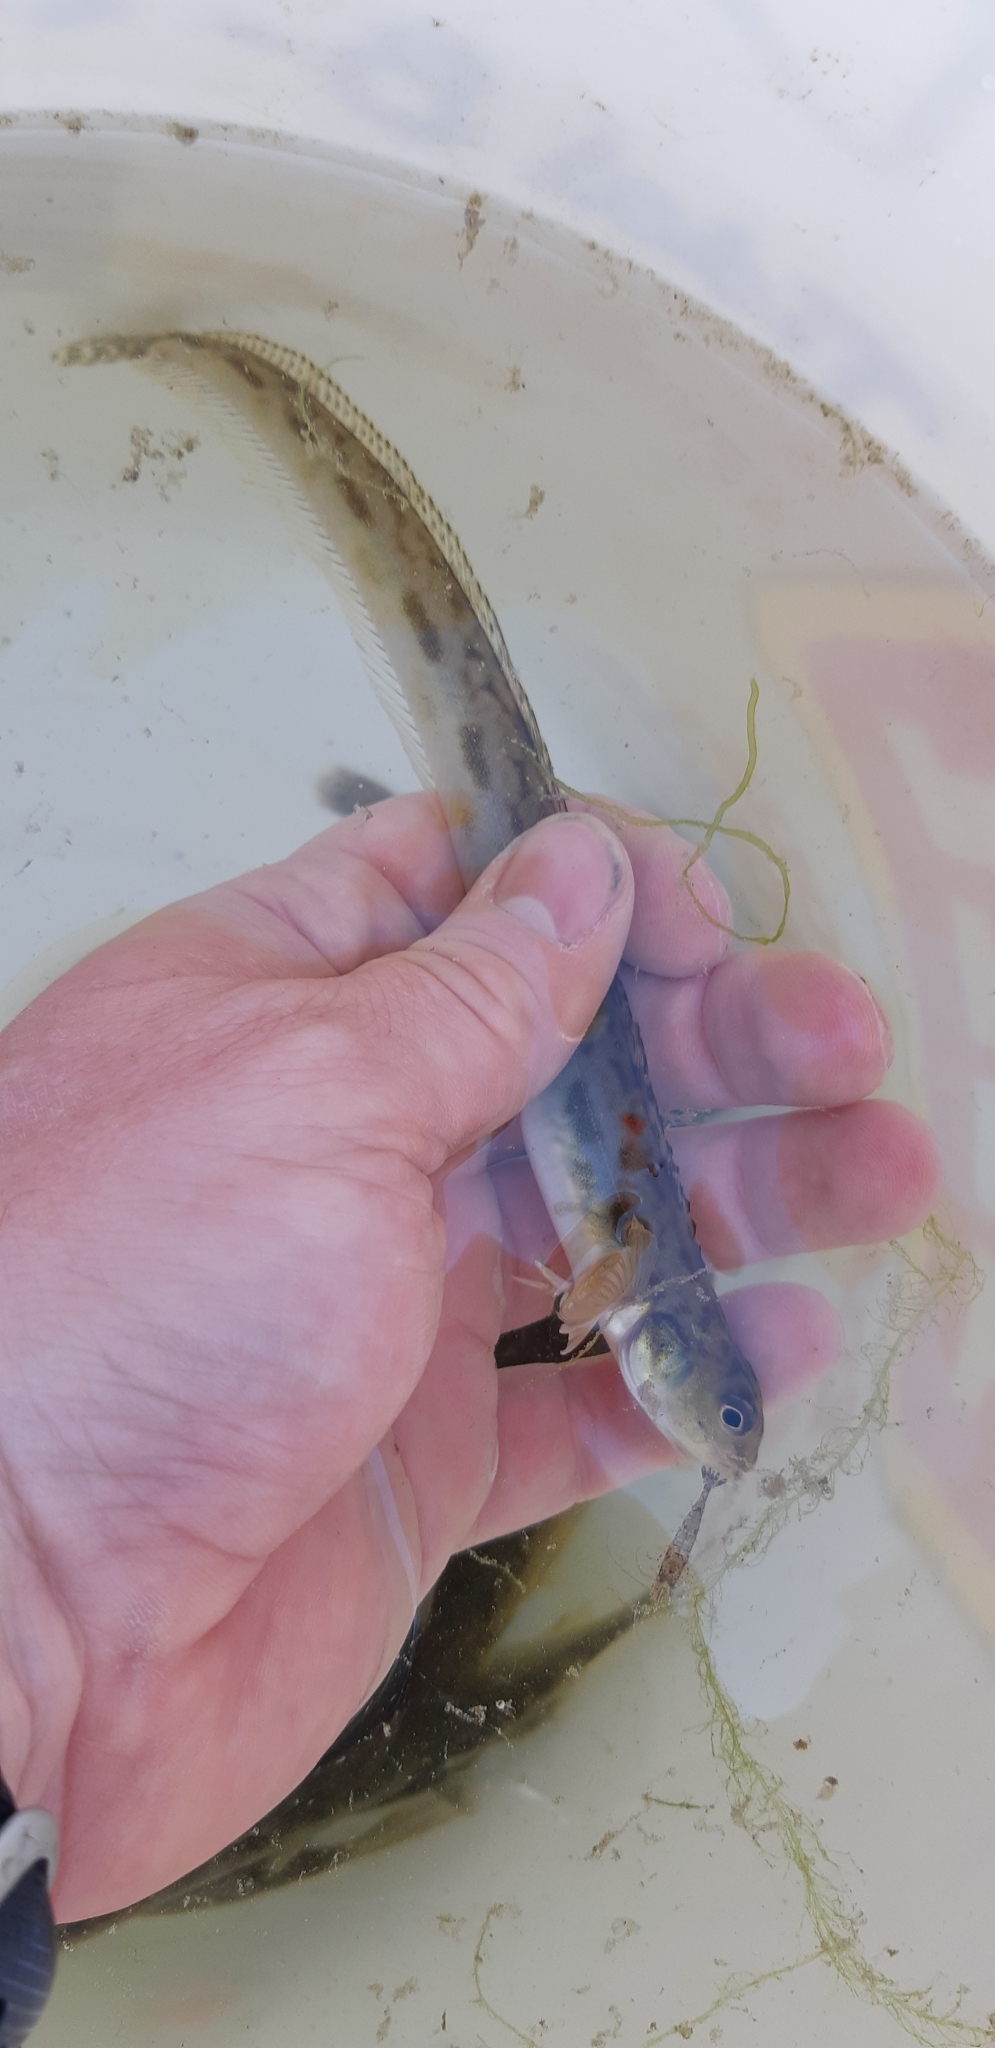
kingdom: Animalia
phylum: Chordata
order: Perciformes
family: Stichaeidae
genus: Lumpenus
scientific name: Lumpenus sagitta
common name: Snake prickleback
